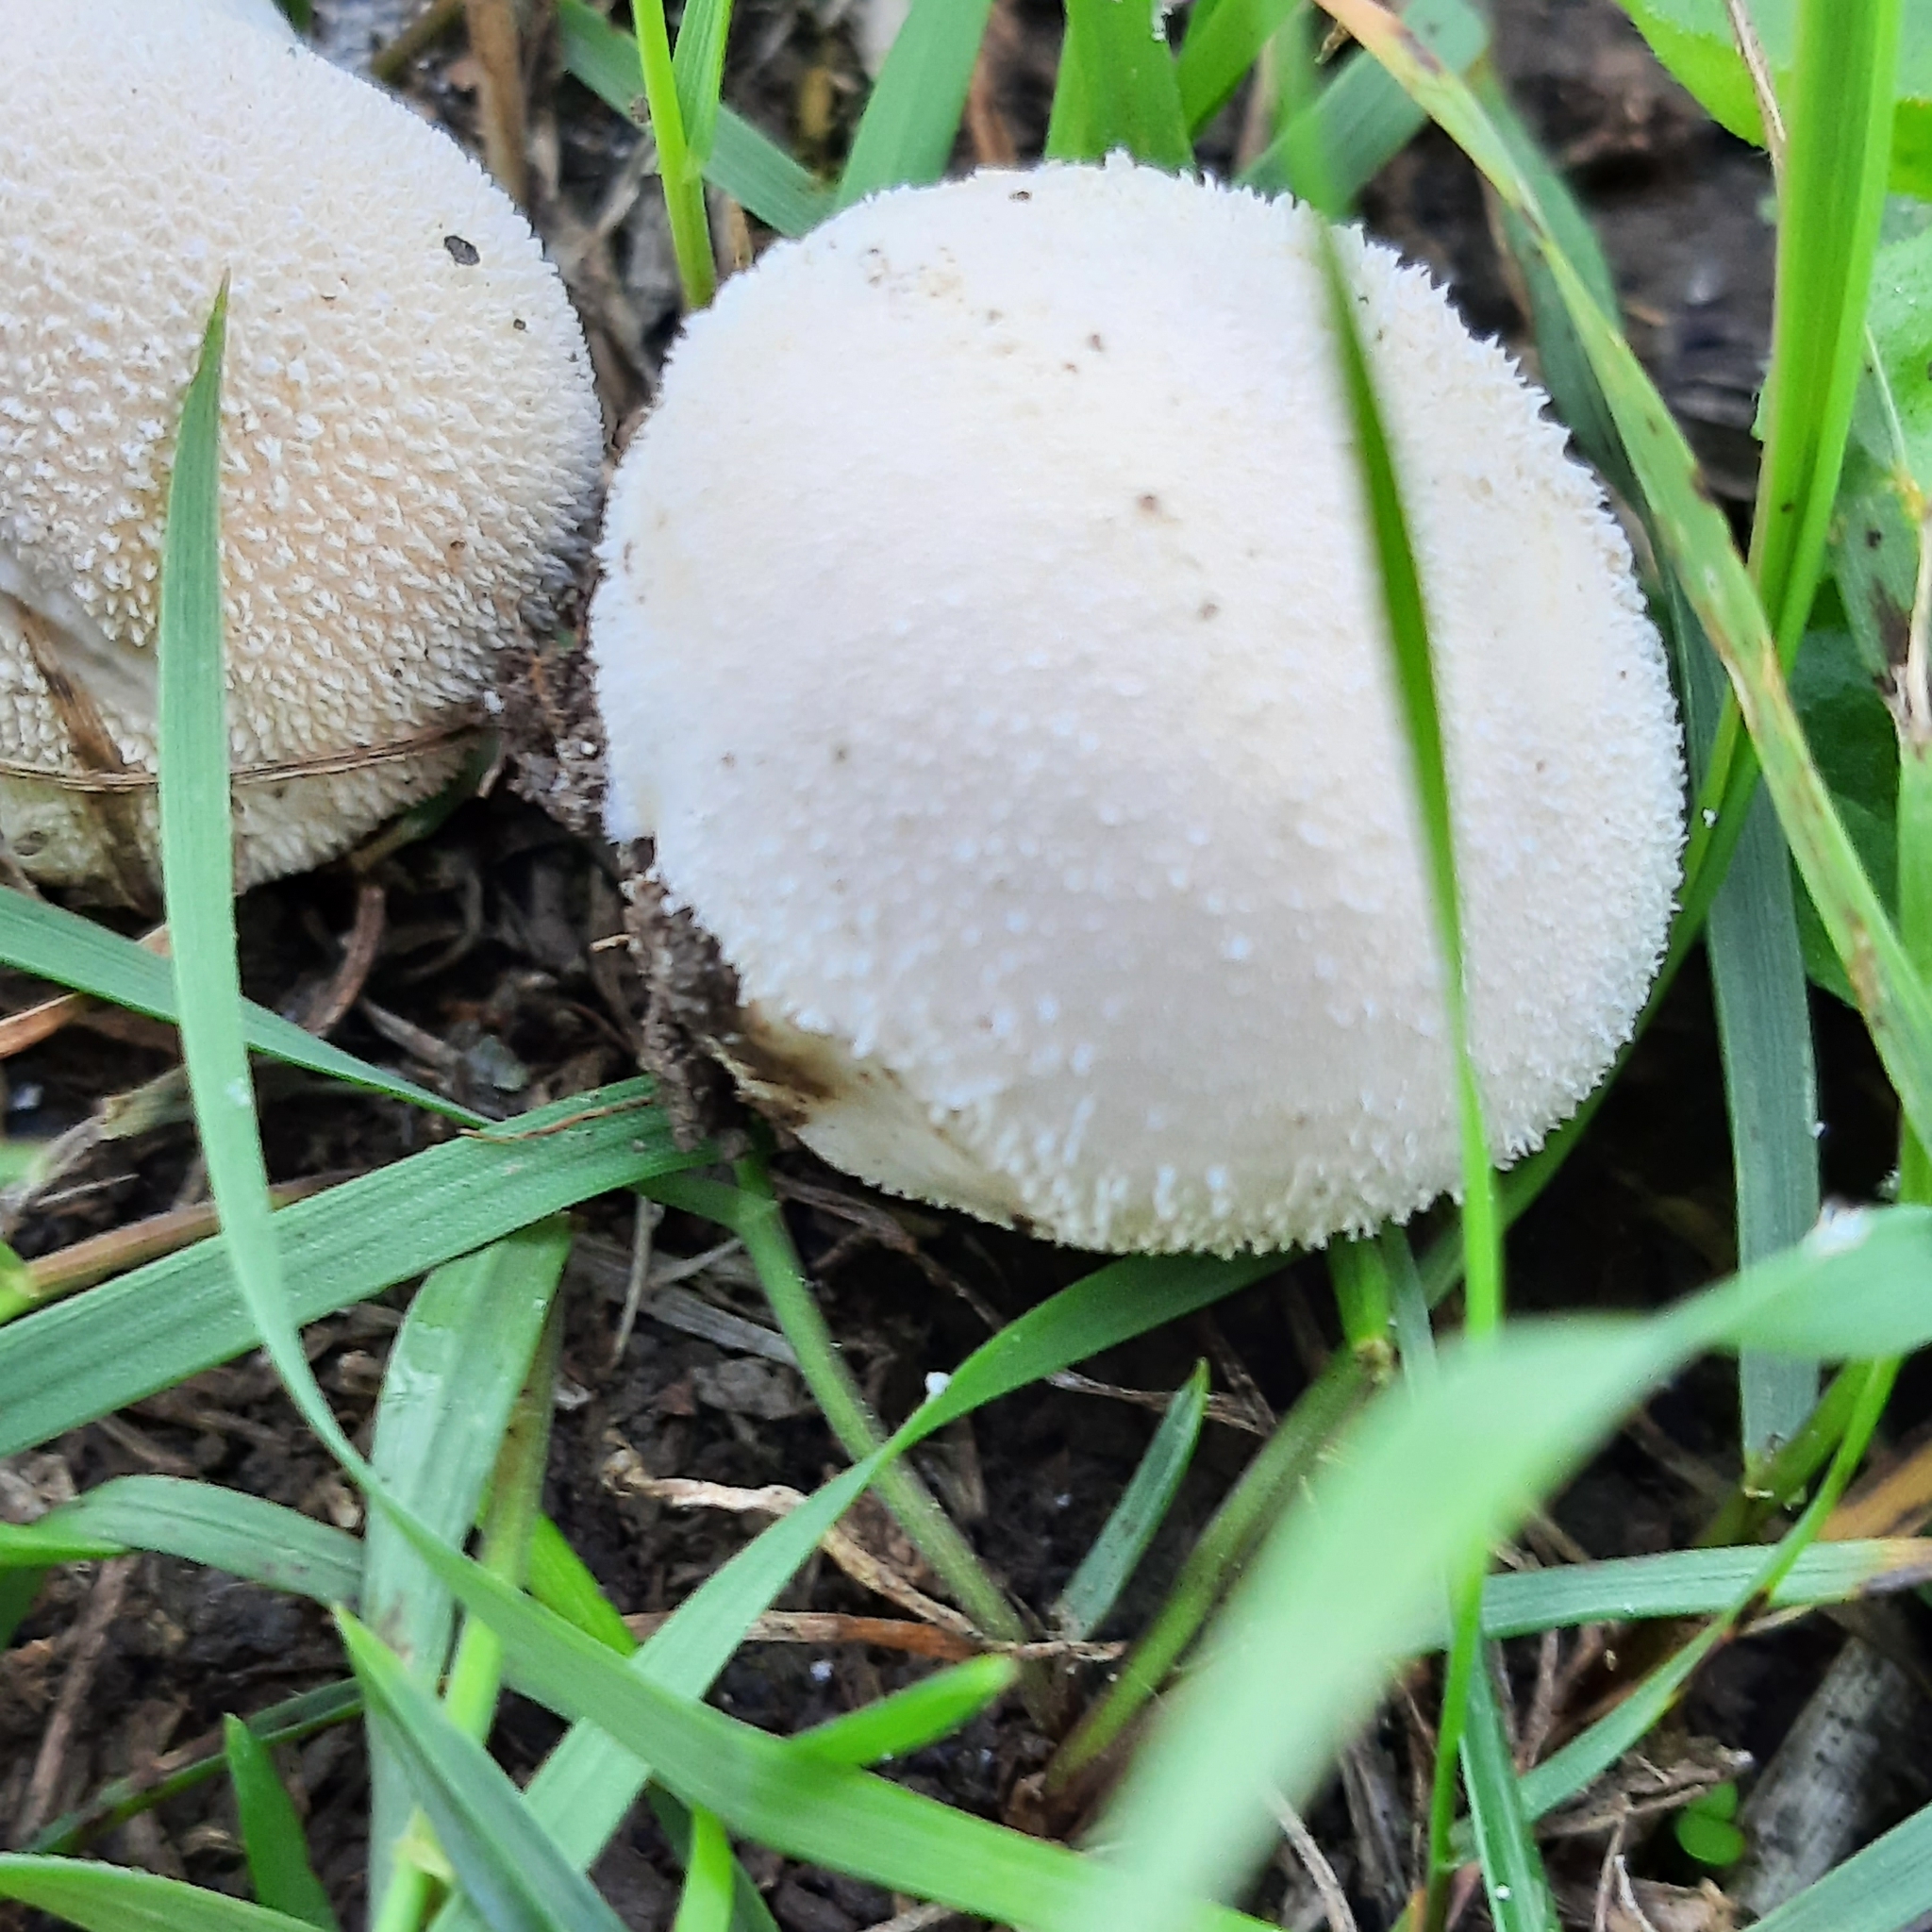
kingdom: Fungi
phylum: Basidiomycota
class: Agaricomycetes
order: Agaricales
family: Lycoperdaceae
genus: Lycoperdon
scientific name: Lycoperdon
